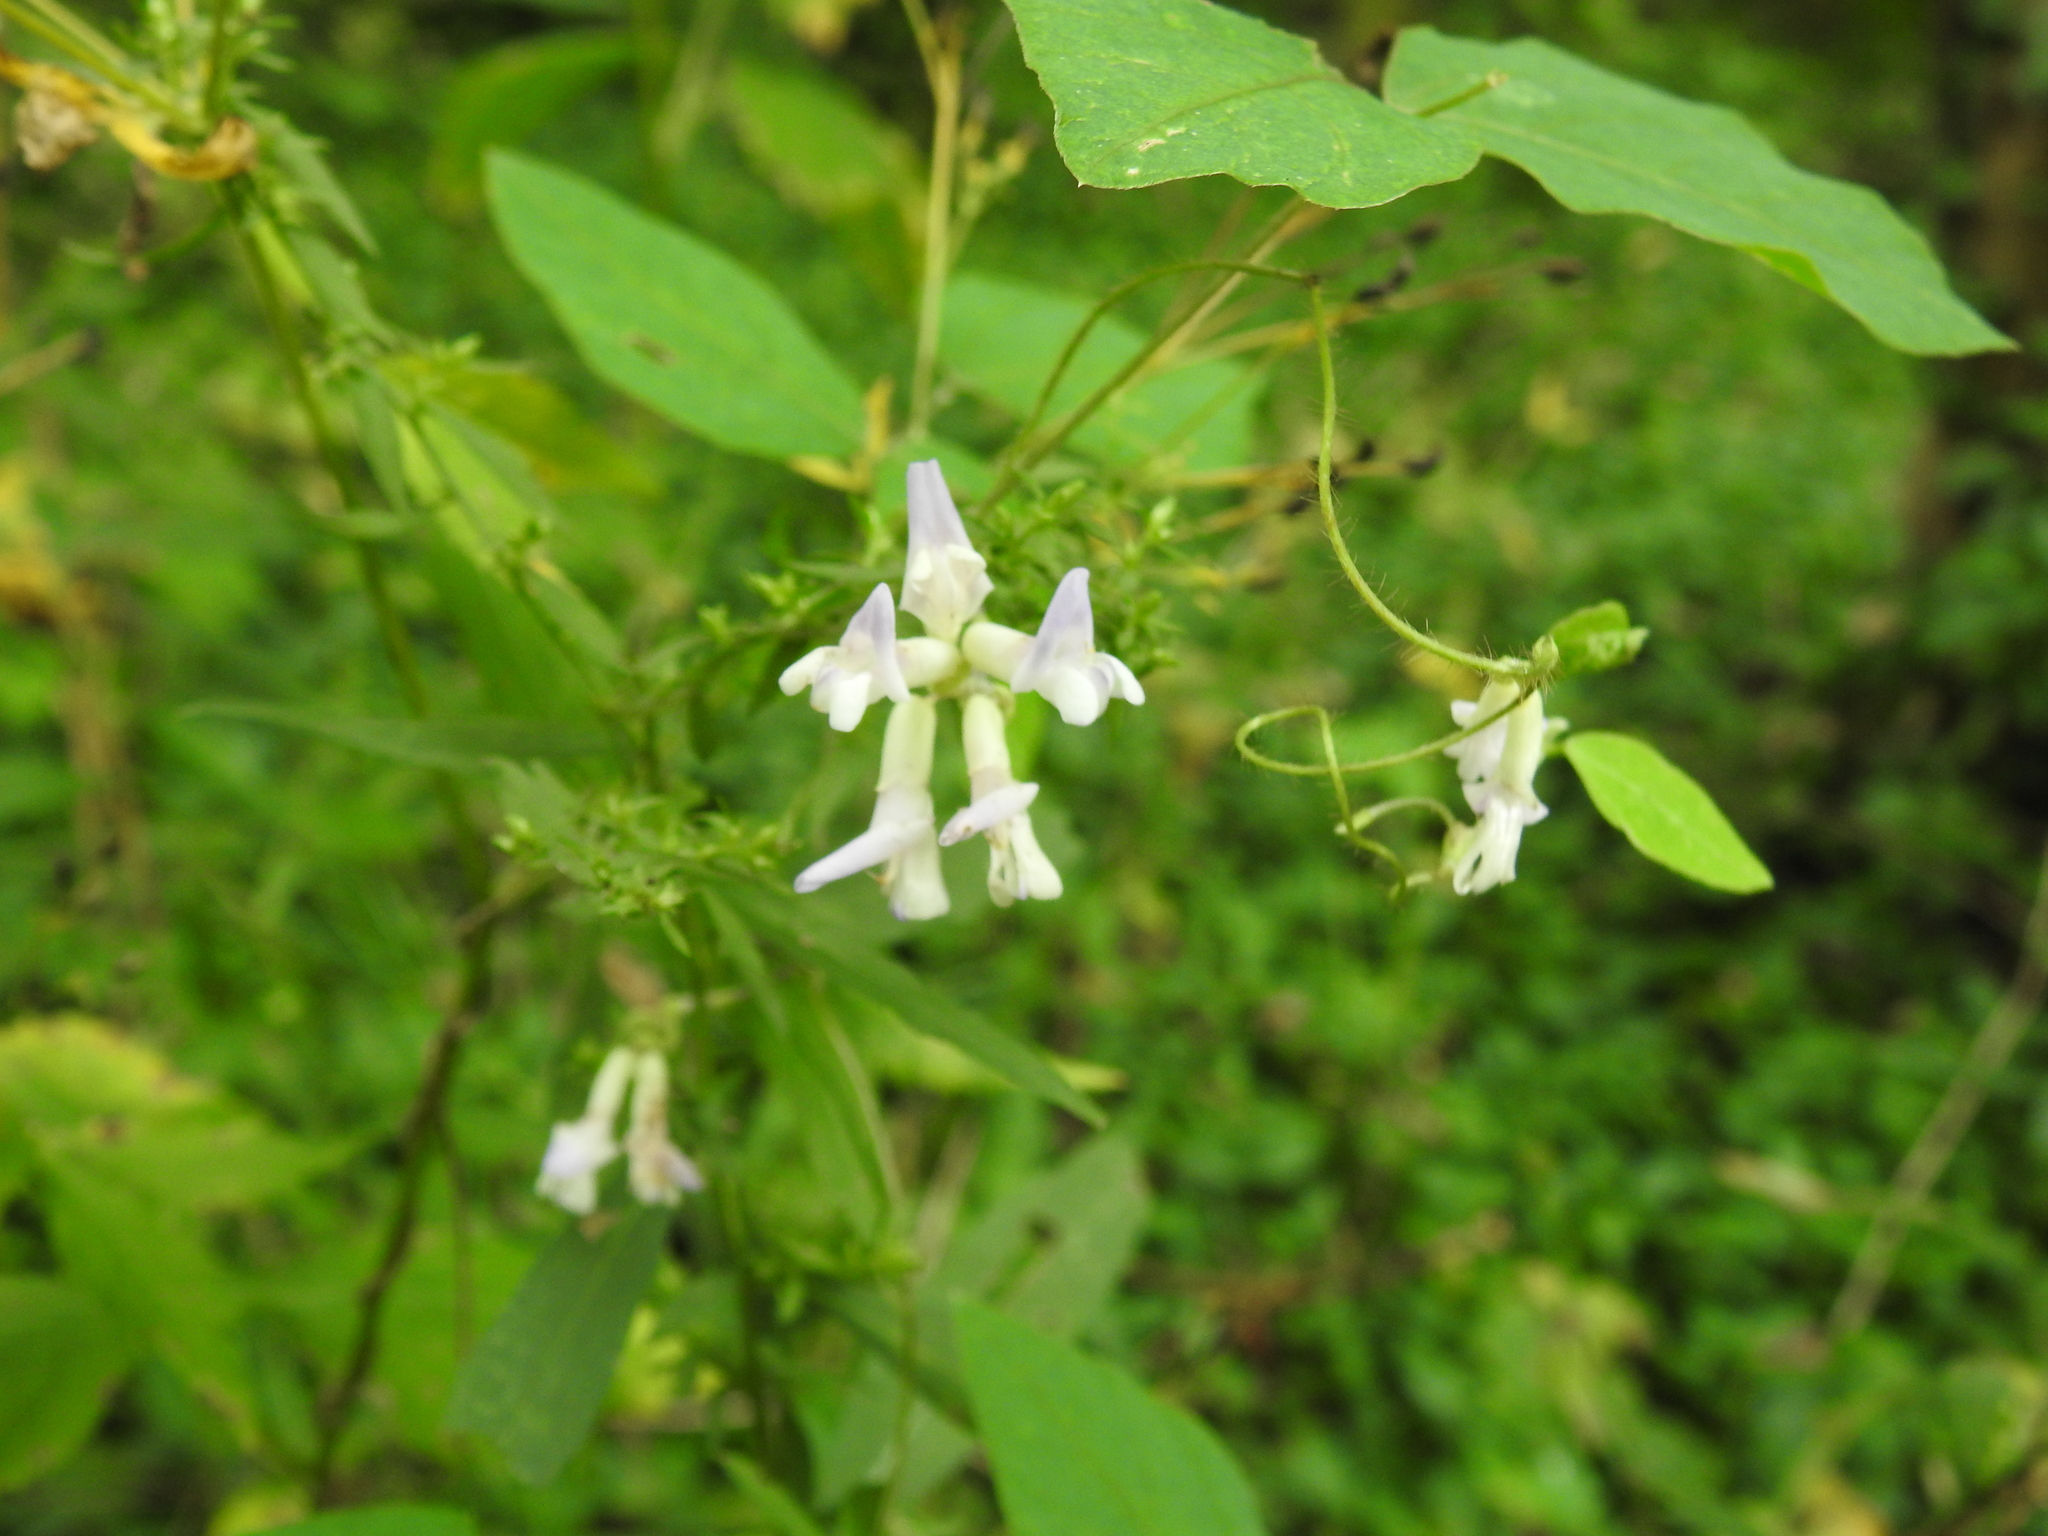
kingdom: Plantae
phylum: Tracheophyta
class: Magnoliopsida
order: Fabales
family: Fabaceae
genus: Amphicarpaea
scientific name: Amphicarpaea bracteata
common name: American hog peanut
